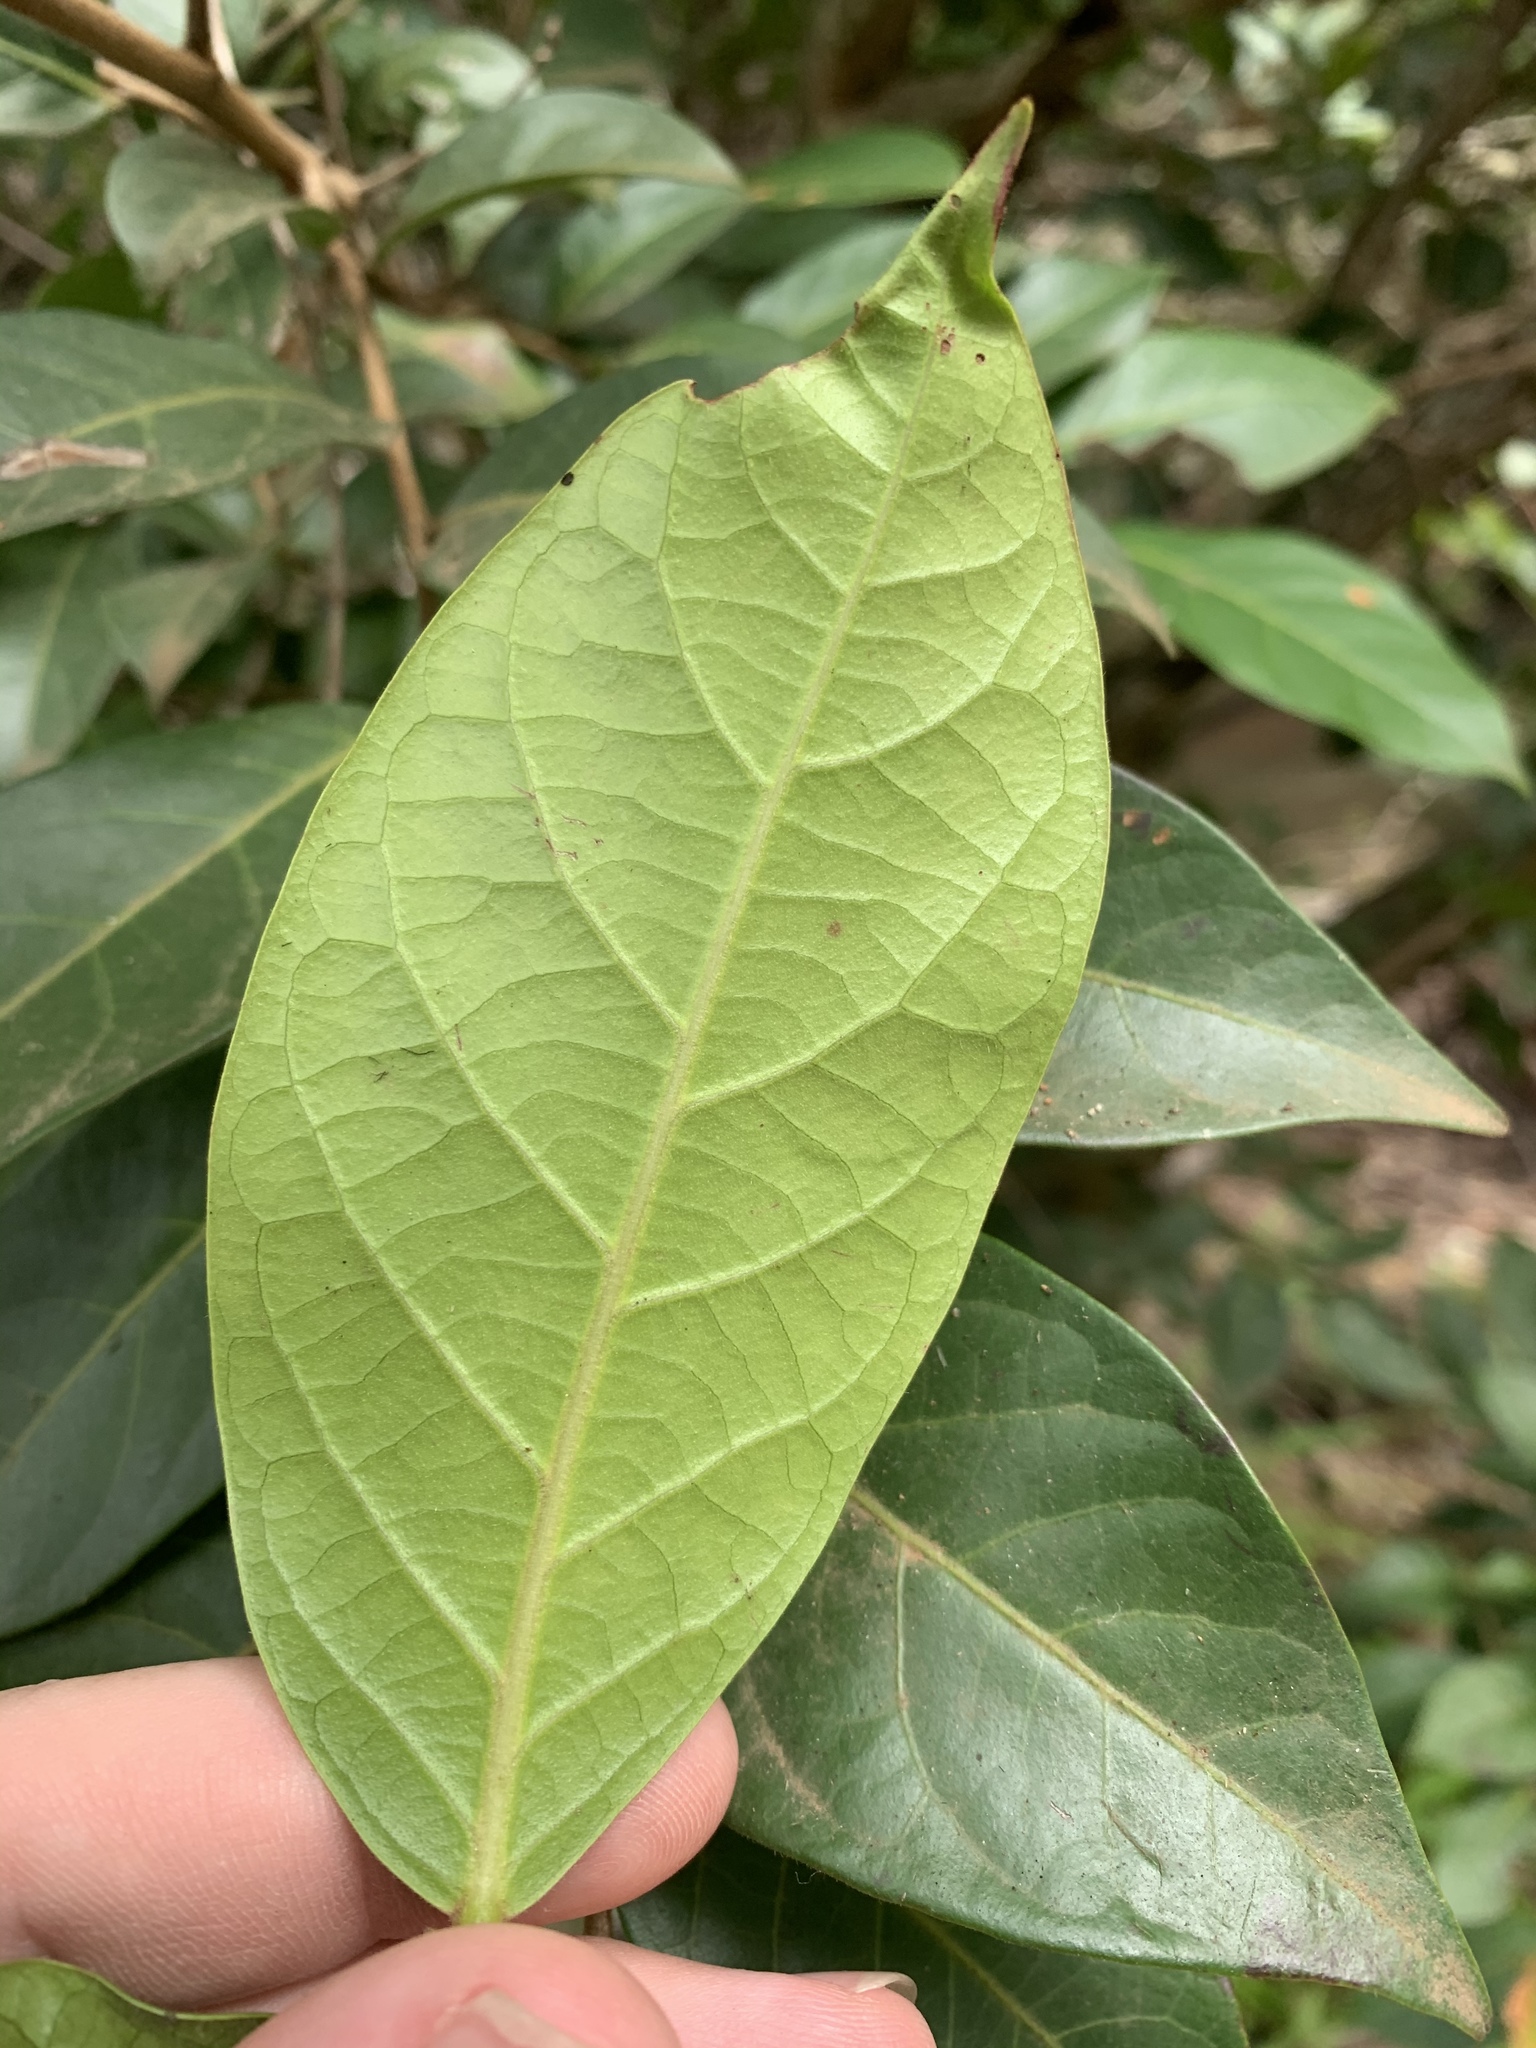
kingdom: Plantae
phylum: Tracheophyta
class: Magnoliopsida
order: Malpighiales
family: Phyllanthaceae
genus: Glochidion
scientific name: Glochidion ferdinandi
